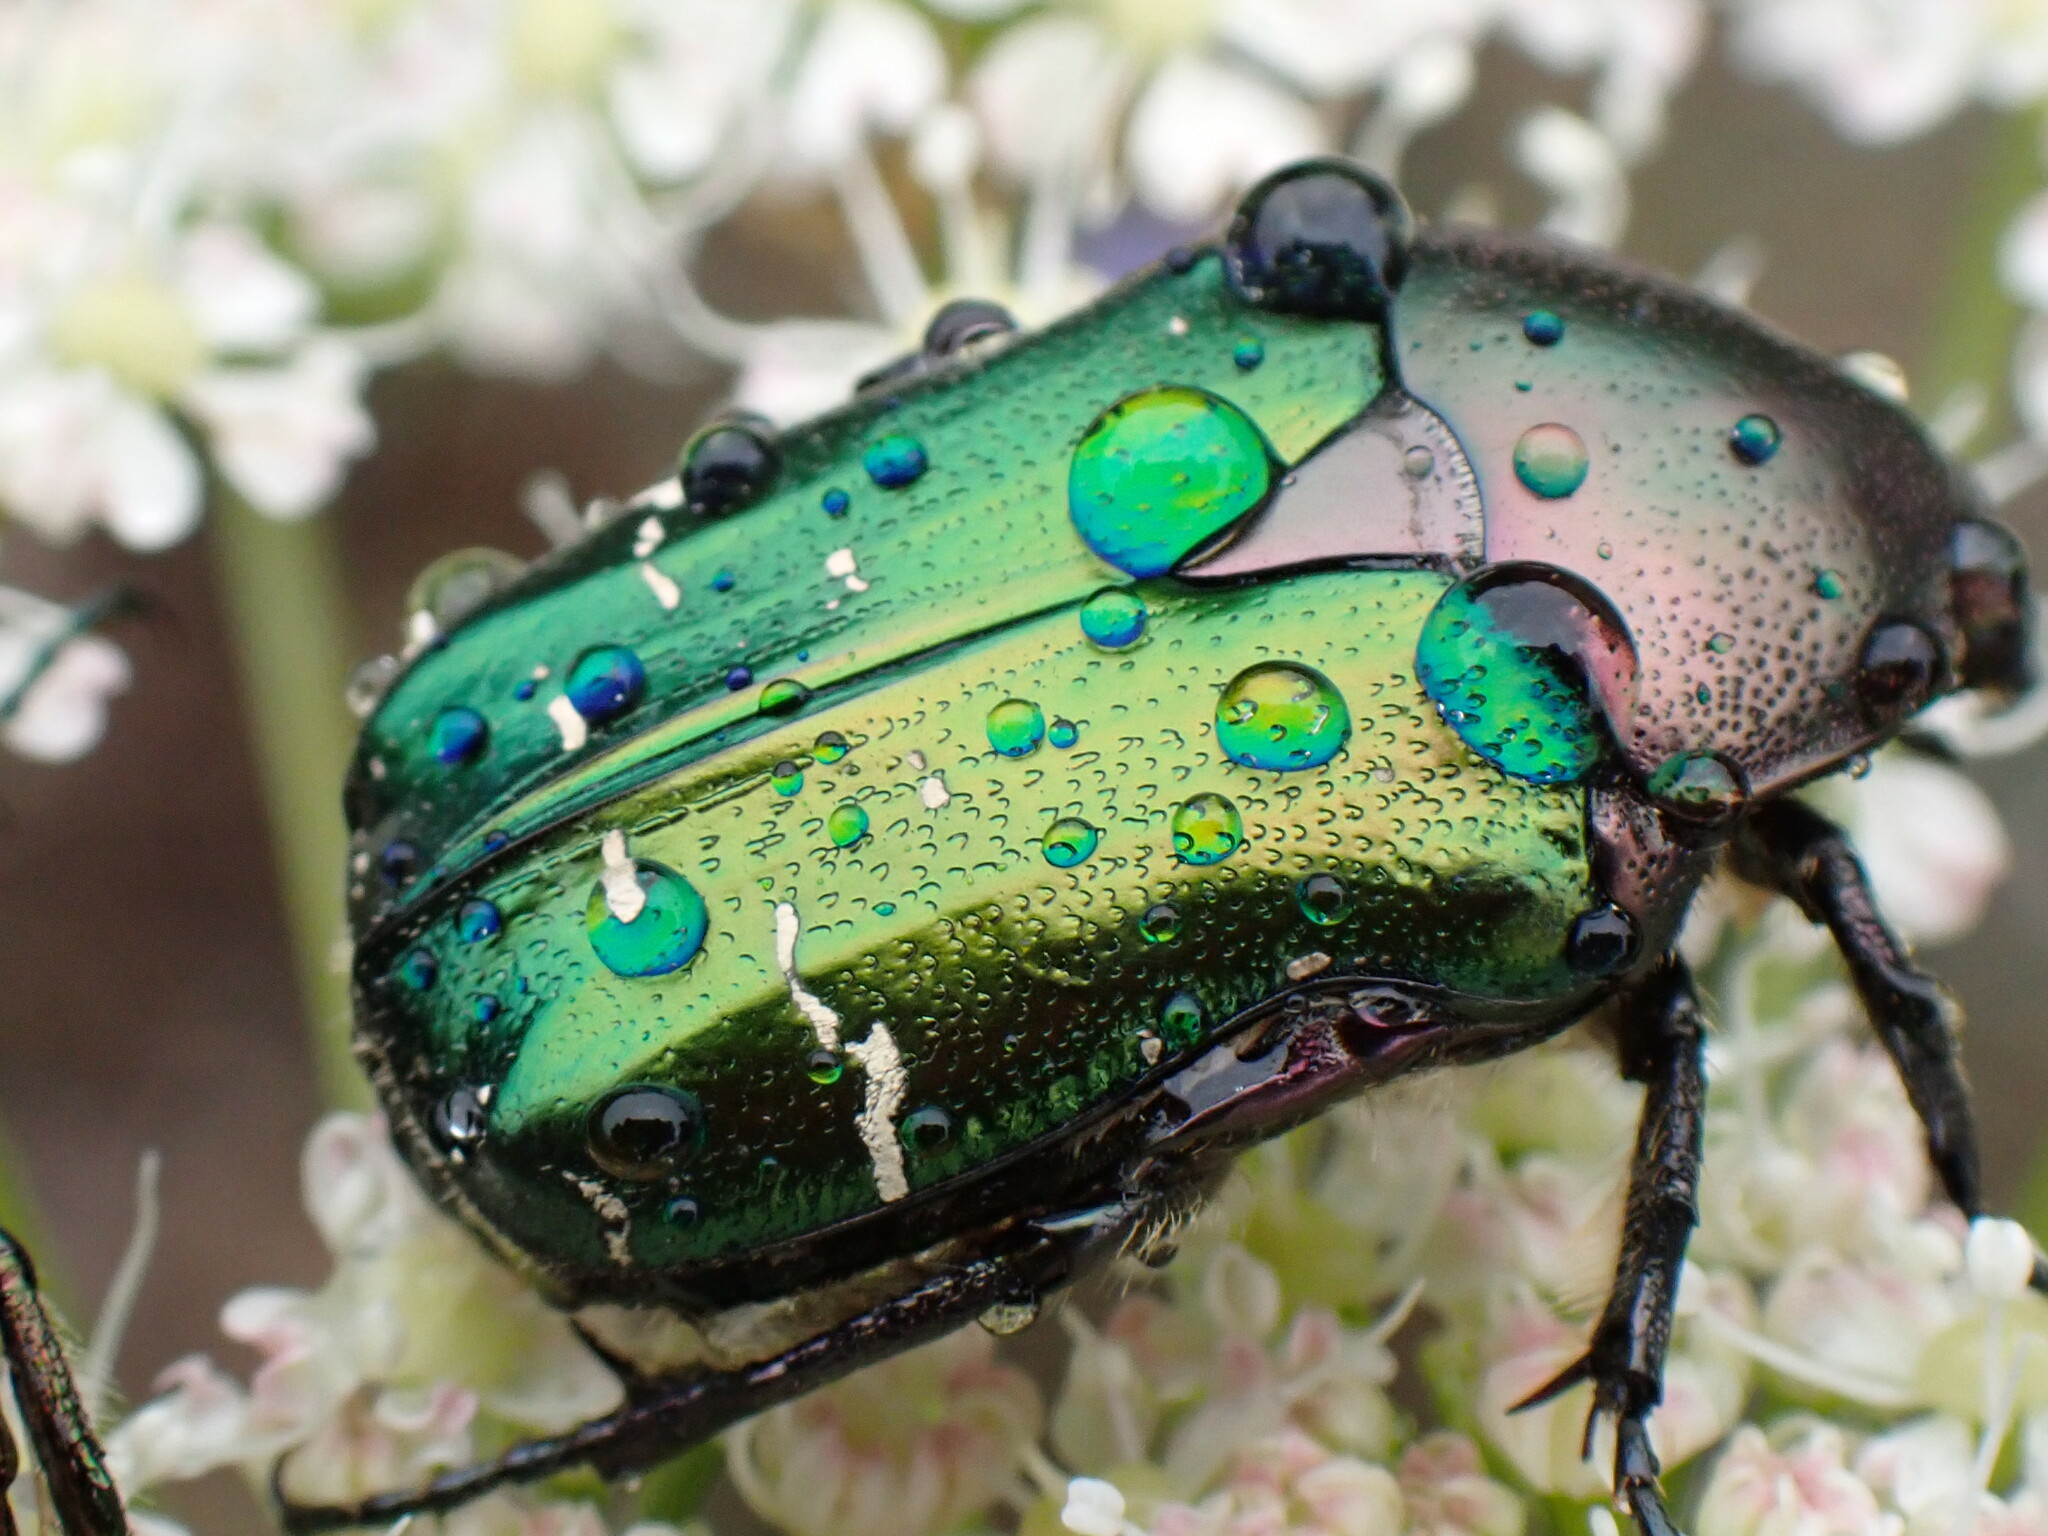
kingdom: Animalia
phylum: Arthropoda
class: Insecta
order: Coleoptera
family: Scarabaeidae
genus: Cetonia
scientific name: Cetonia aurata
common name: Rose chafer
